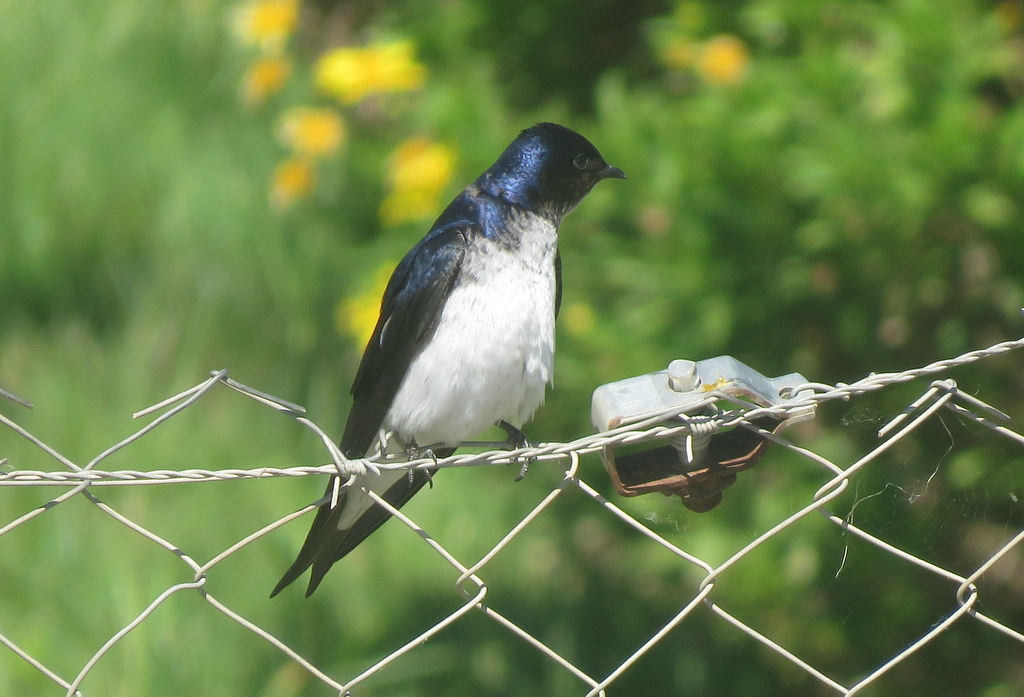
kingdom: Animalia
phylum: Chordata
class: Aves
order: Passeriformes
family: Hirundinidae
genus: Progne
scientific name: Progne chalybea
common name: Grey-breasted martin
